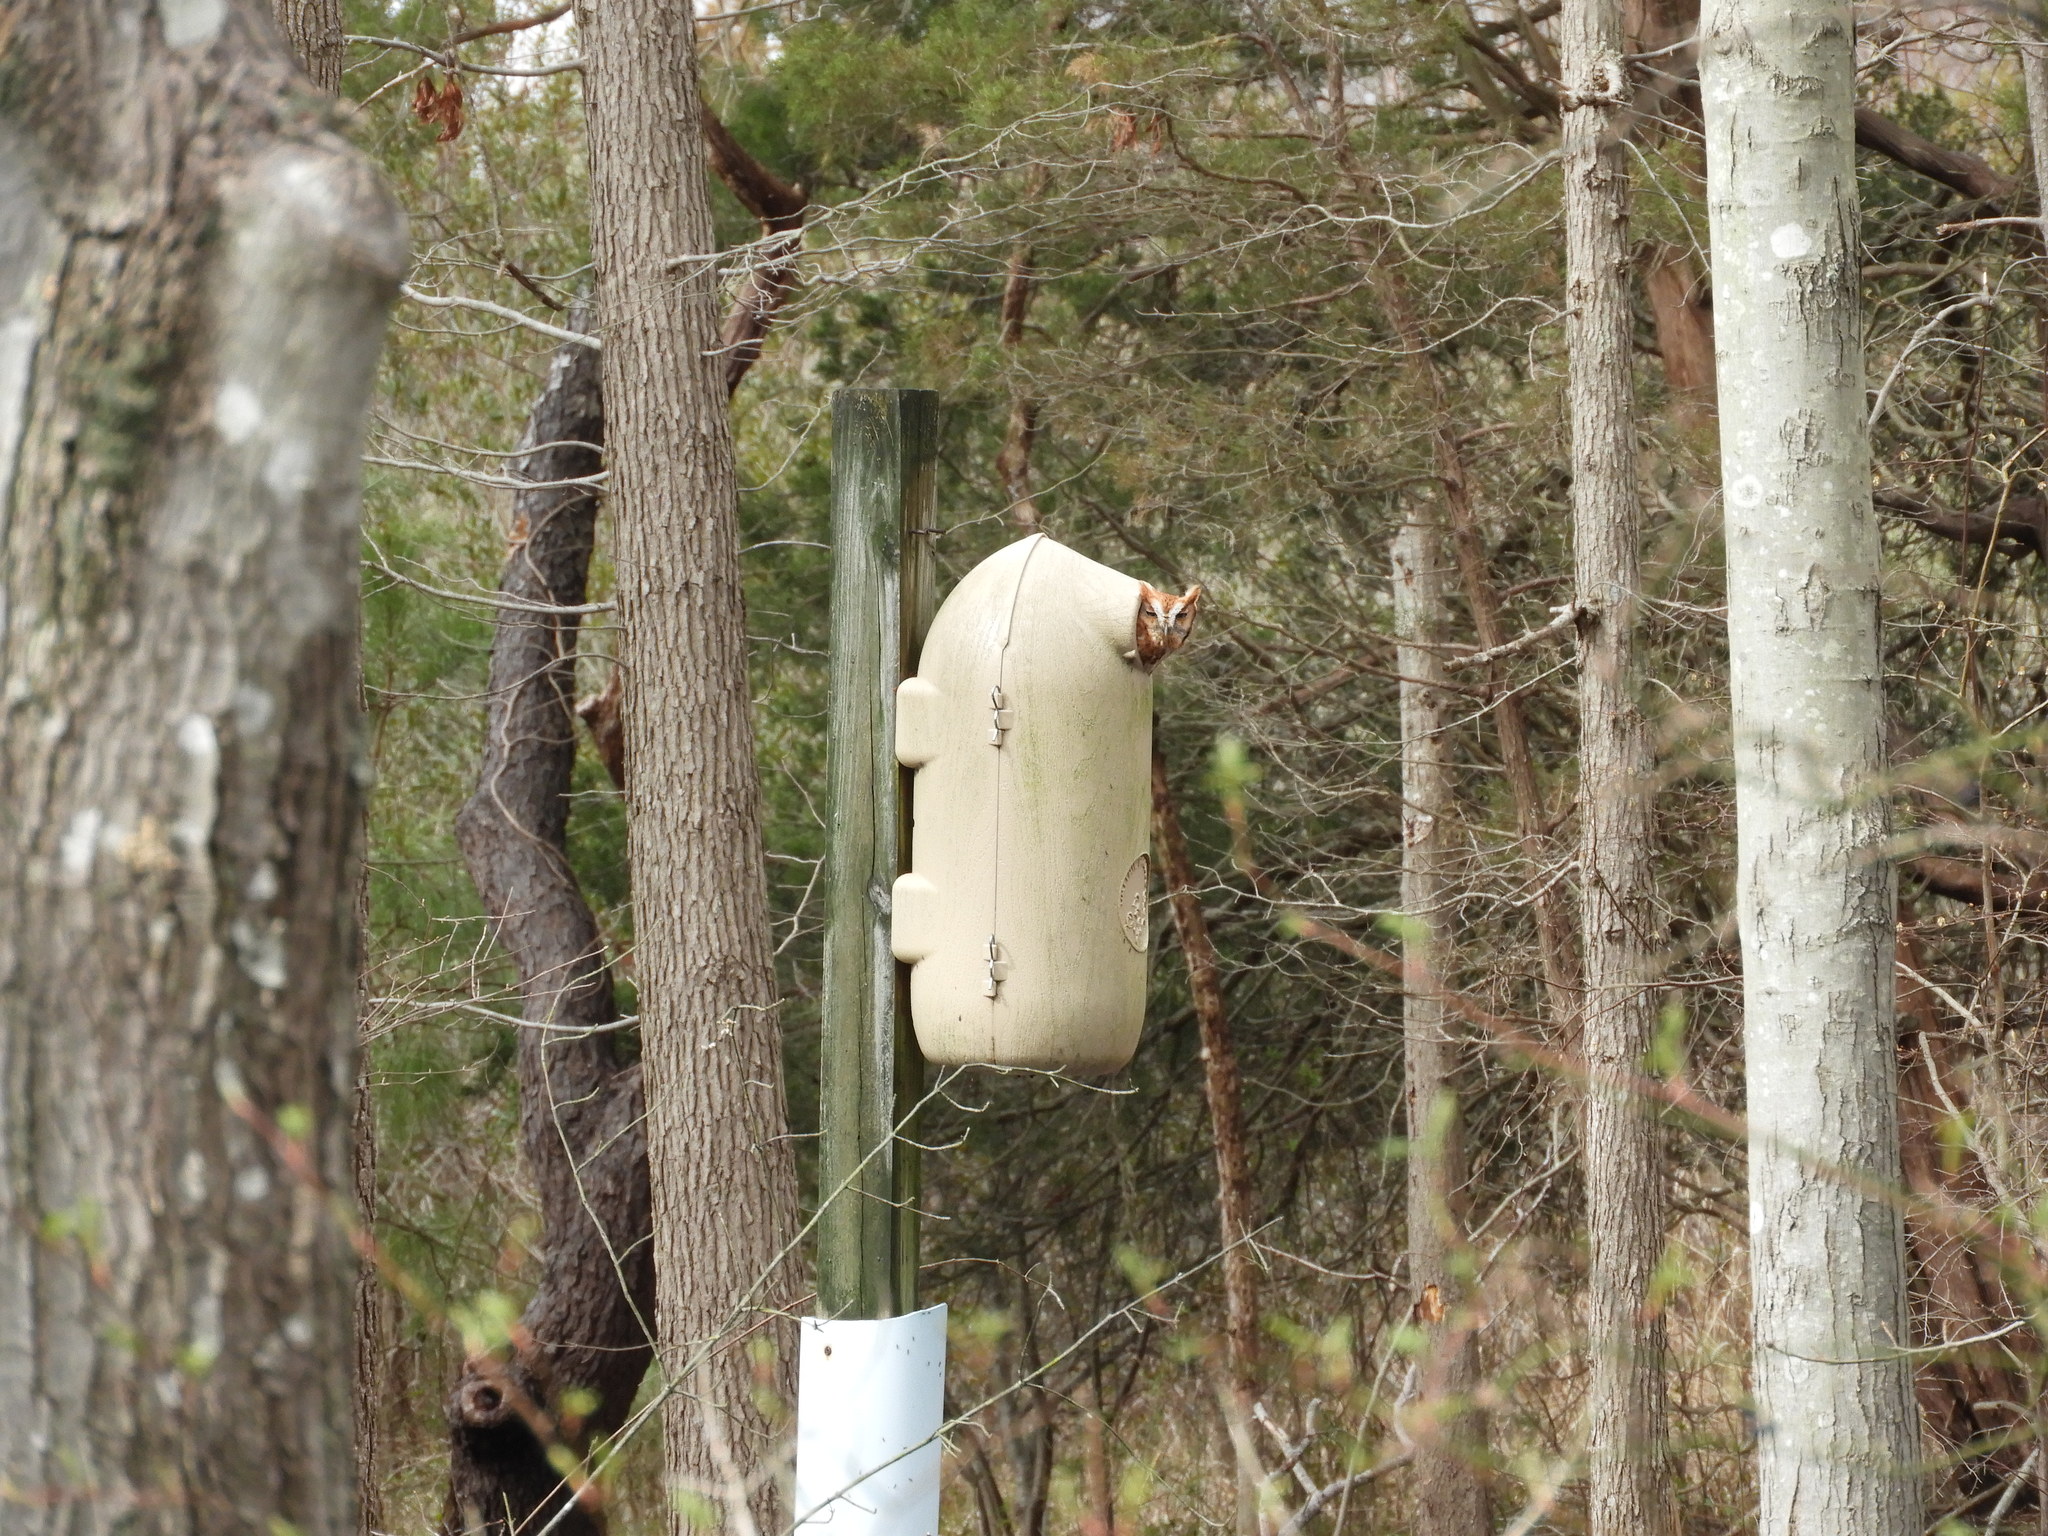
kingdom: Animalia
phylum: Chordata
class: Aves
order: Strigiformes
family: Strigidae
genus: Megascops
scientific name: Megascops asio
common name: Eastern screech-owl
